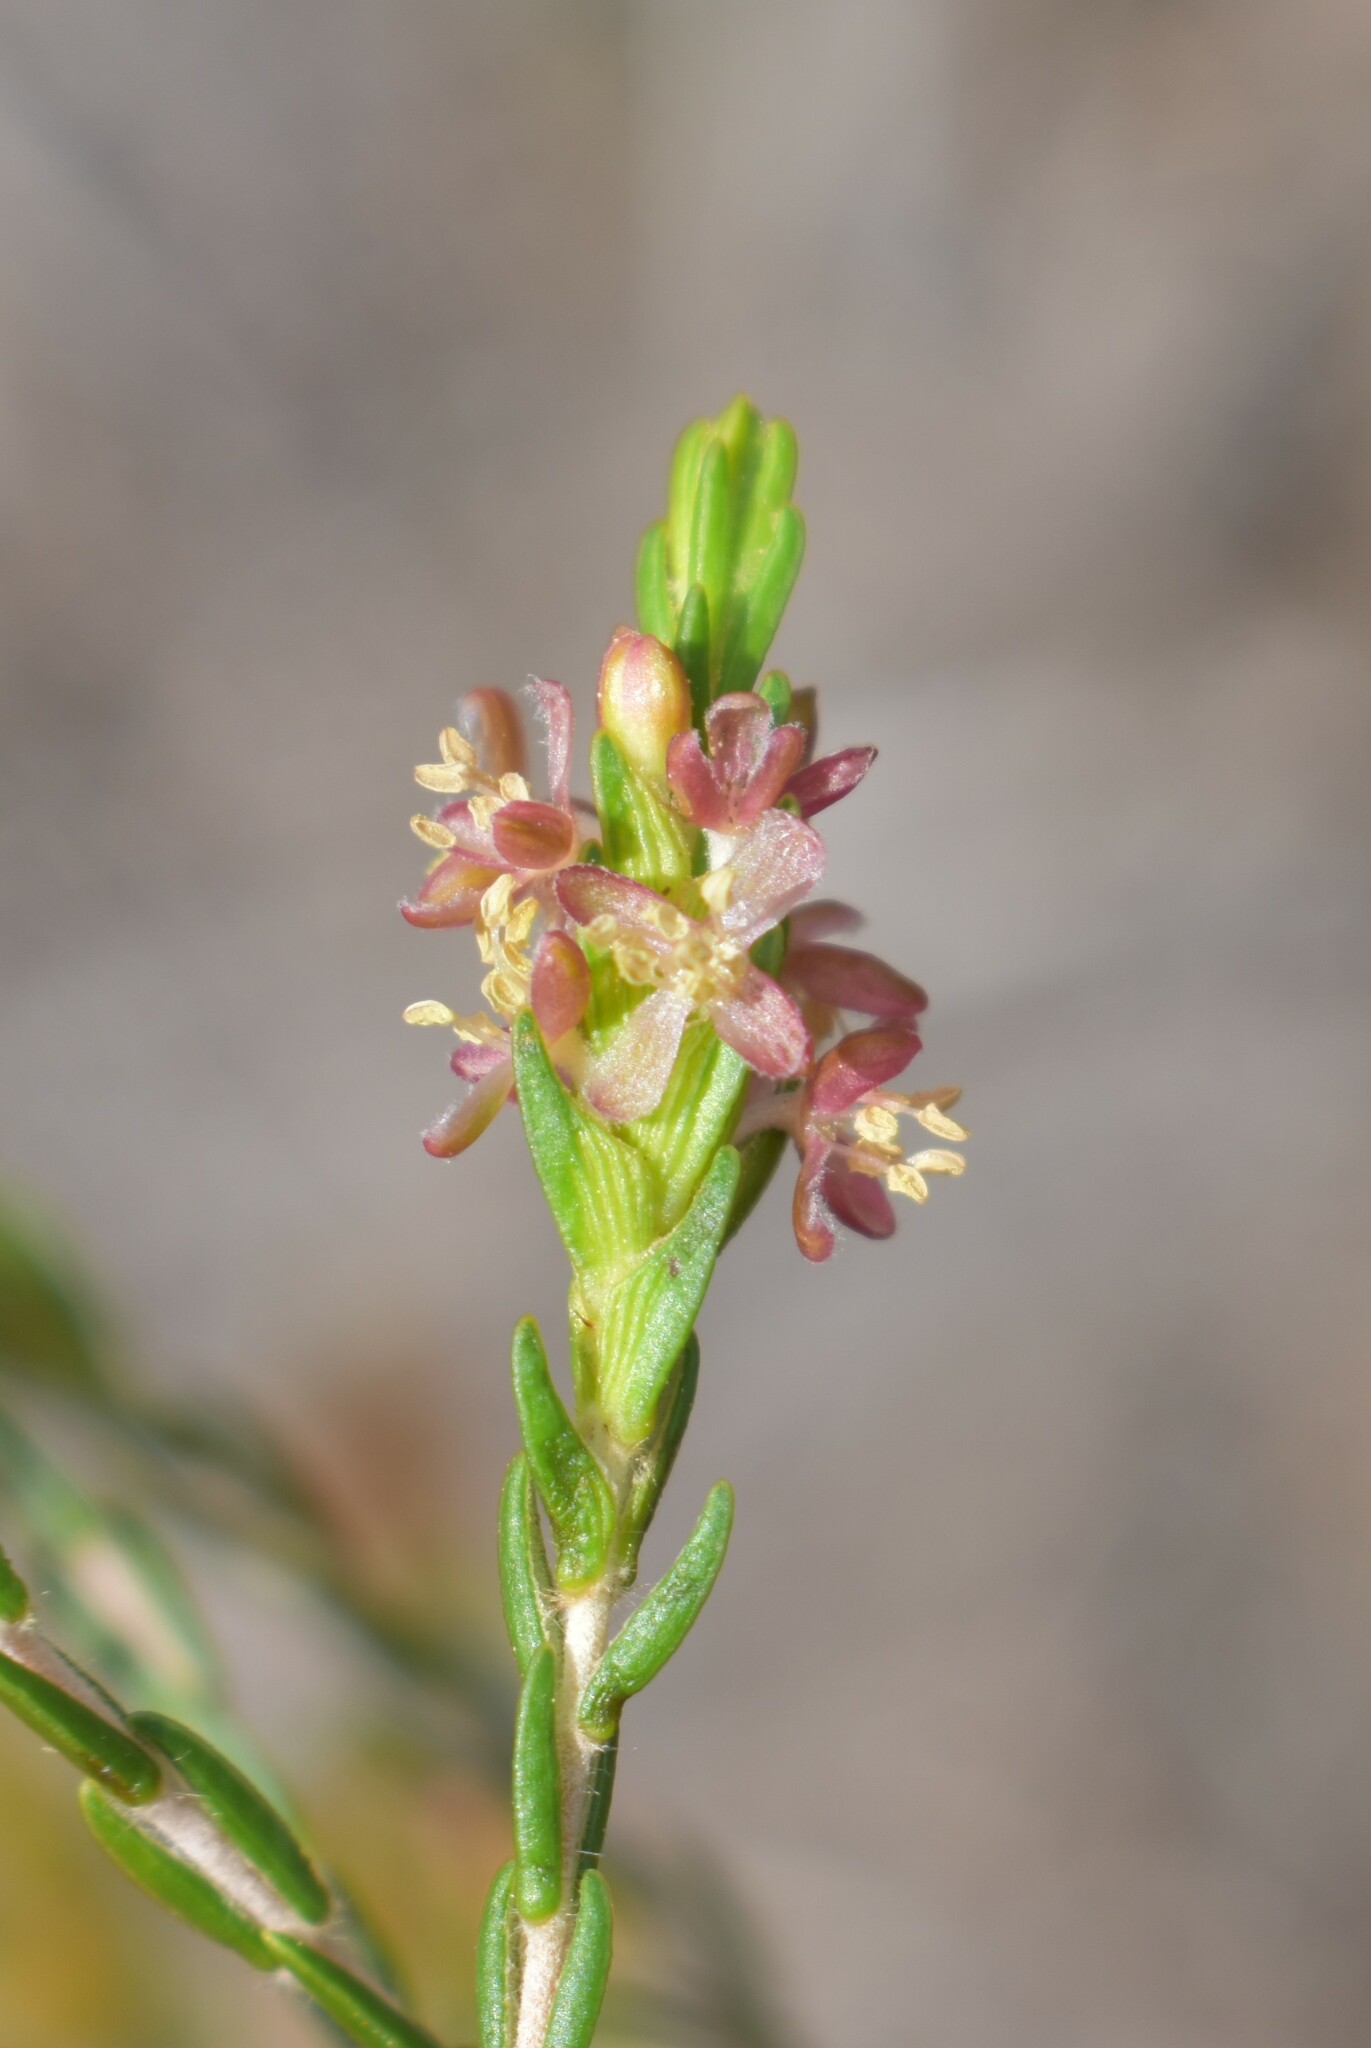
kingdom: Plantae
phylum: Tracheophyta
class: Magnoliopsida
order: Malvales
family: Thymelaeaceae
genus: Passerina
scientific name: Passerina corymbosa
